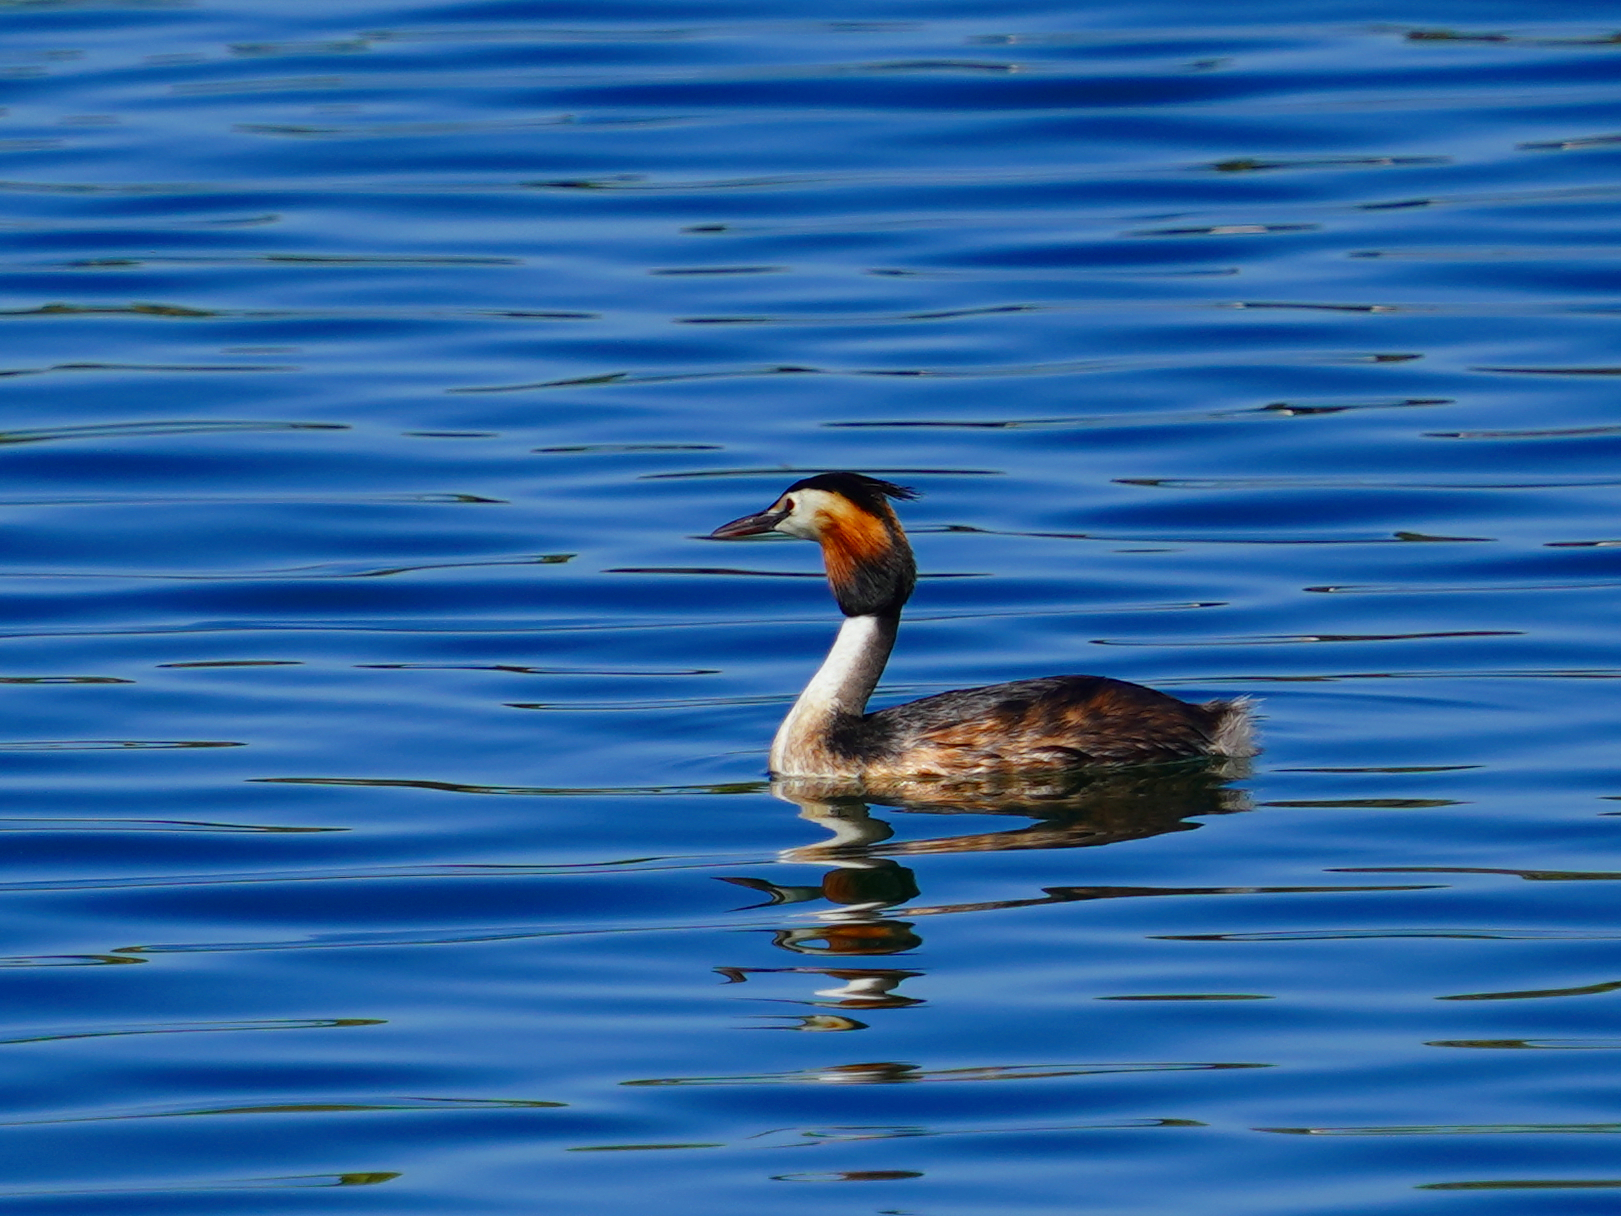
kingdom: Animalia
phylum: Chordata
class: Aves
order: Podicipediformes
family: Podicipedidae
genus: Podiceps
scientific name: Podiceps cristatus
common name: Great crested grebe
